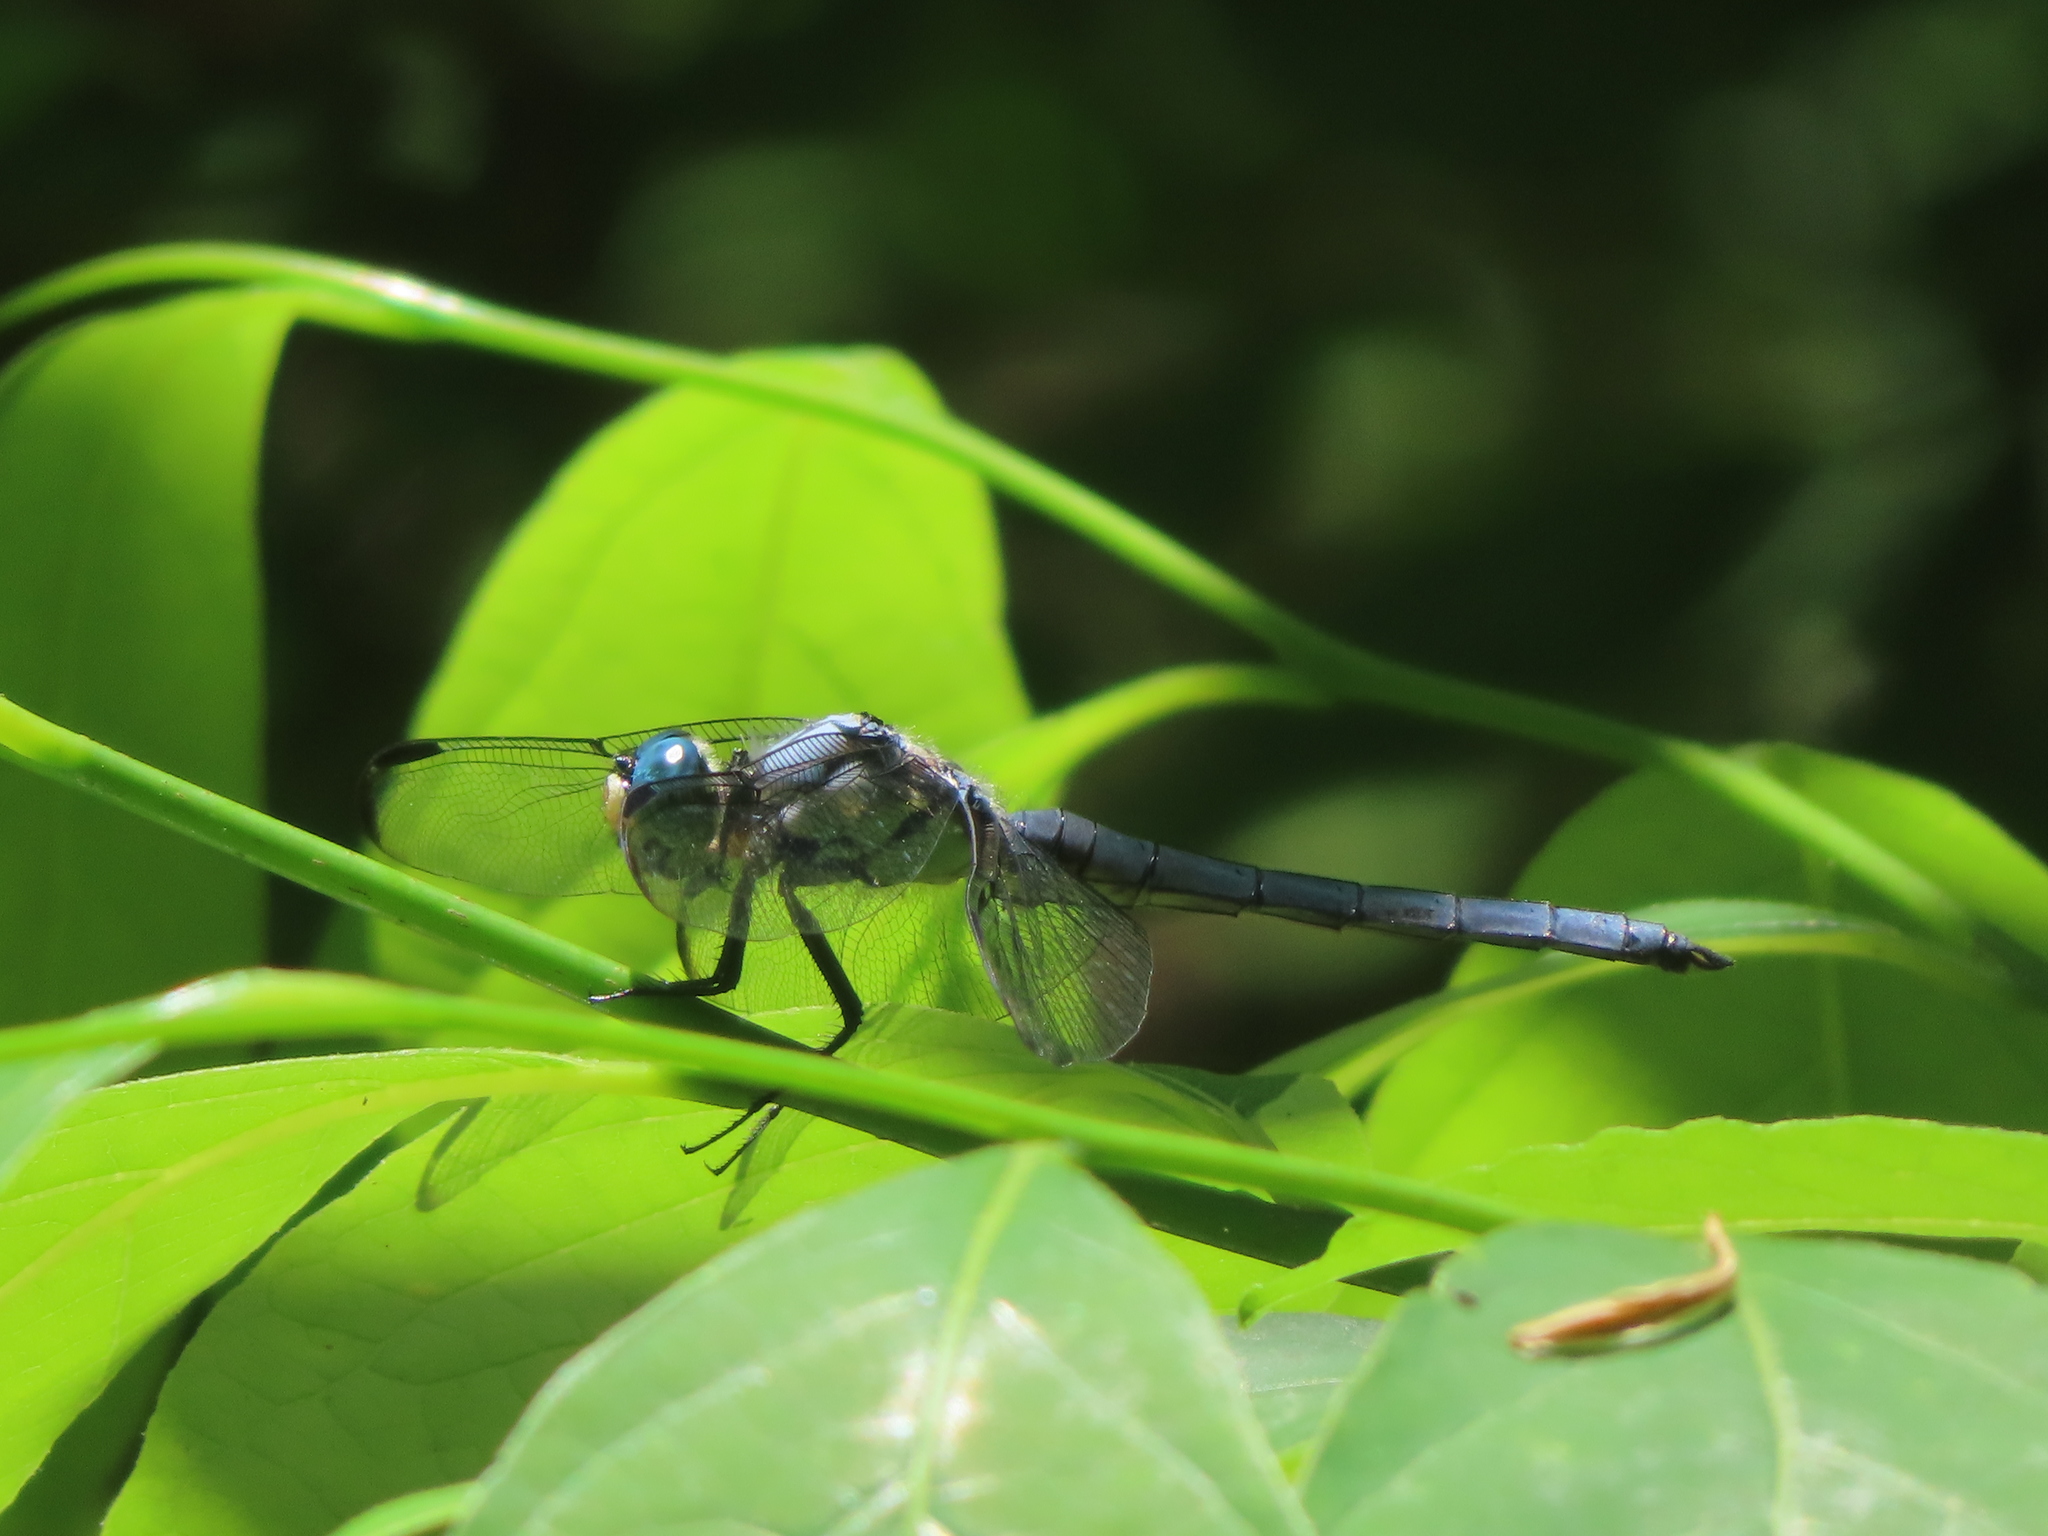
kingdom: Animalia
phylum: Arthropoda
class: Insecta
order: Odonata
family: Libellulidae
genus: Libellula
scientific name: Libellula vibrans
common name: Great blue skimmer
